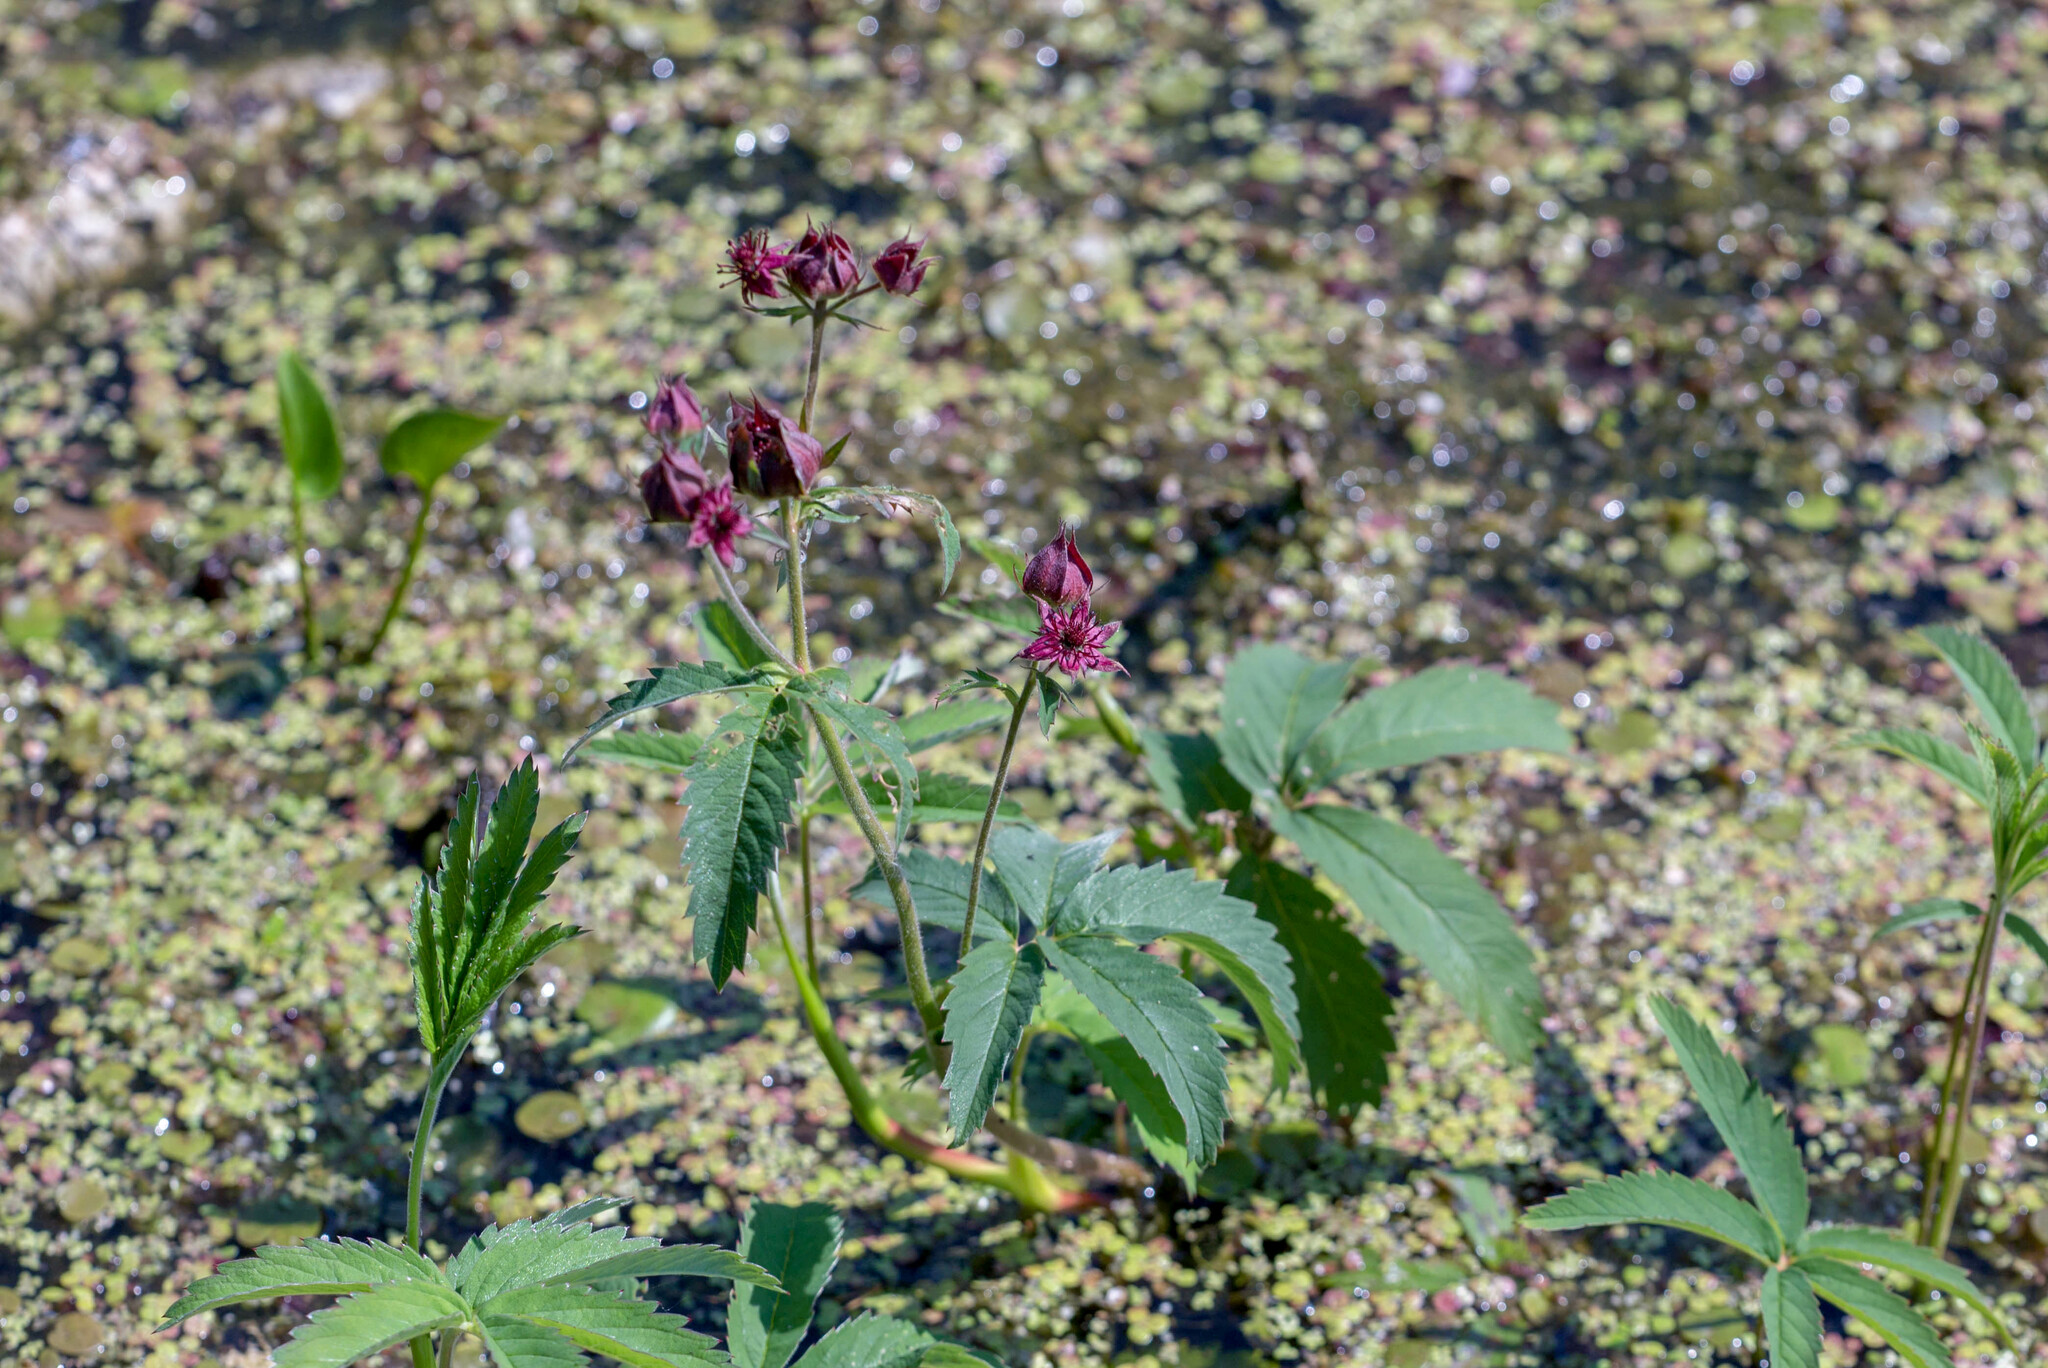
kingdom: Plantae
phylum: Tracheophyta
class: Magnoliopsida
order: Rosales
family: Rosaceae
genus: Comarum
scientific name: Comarum palustre
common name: Marsh cinquefoil
